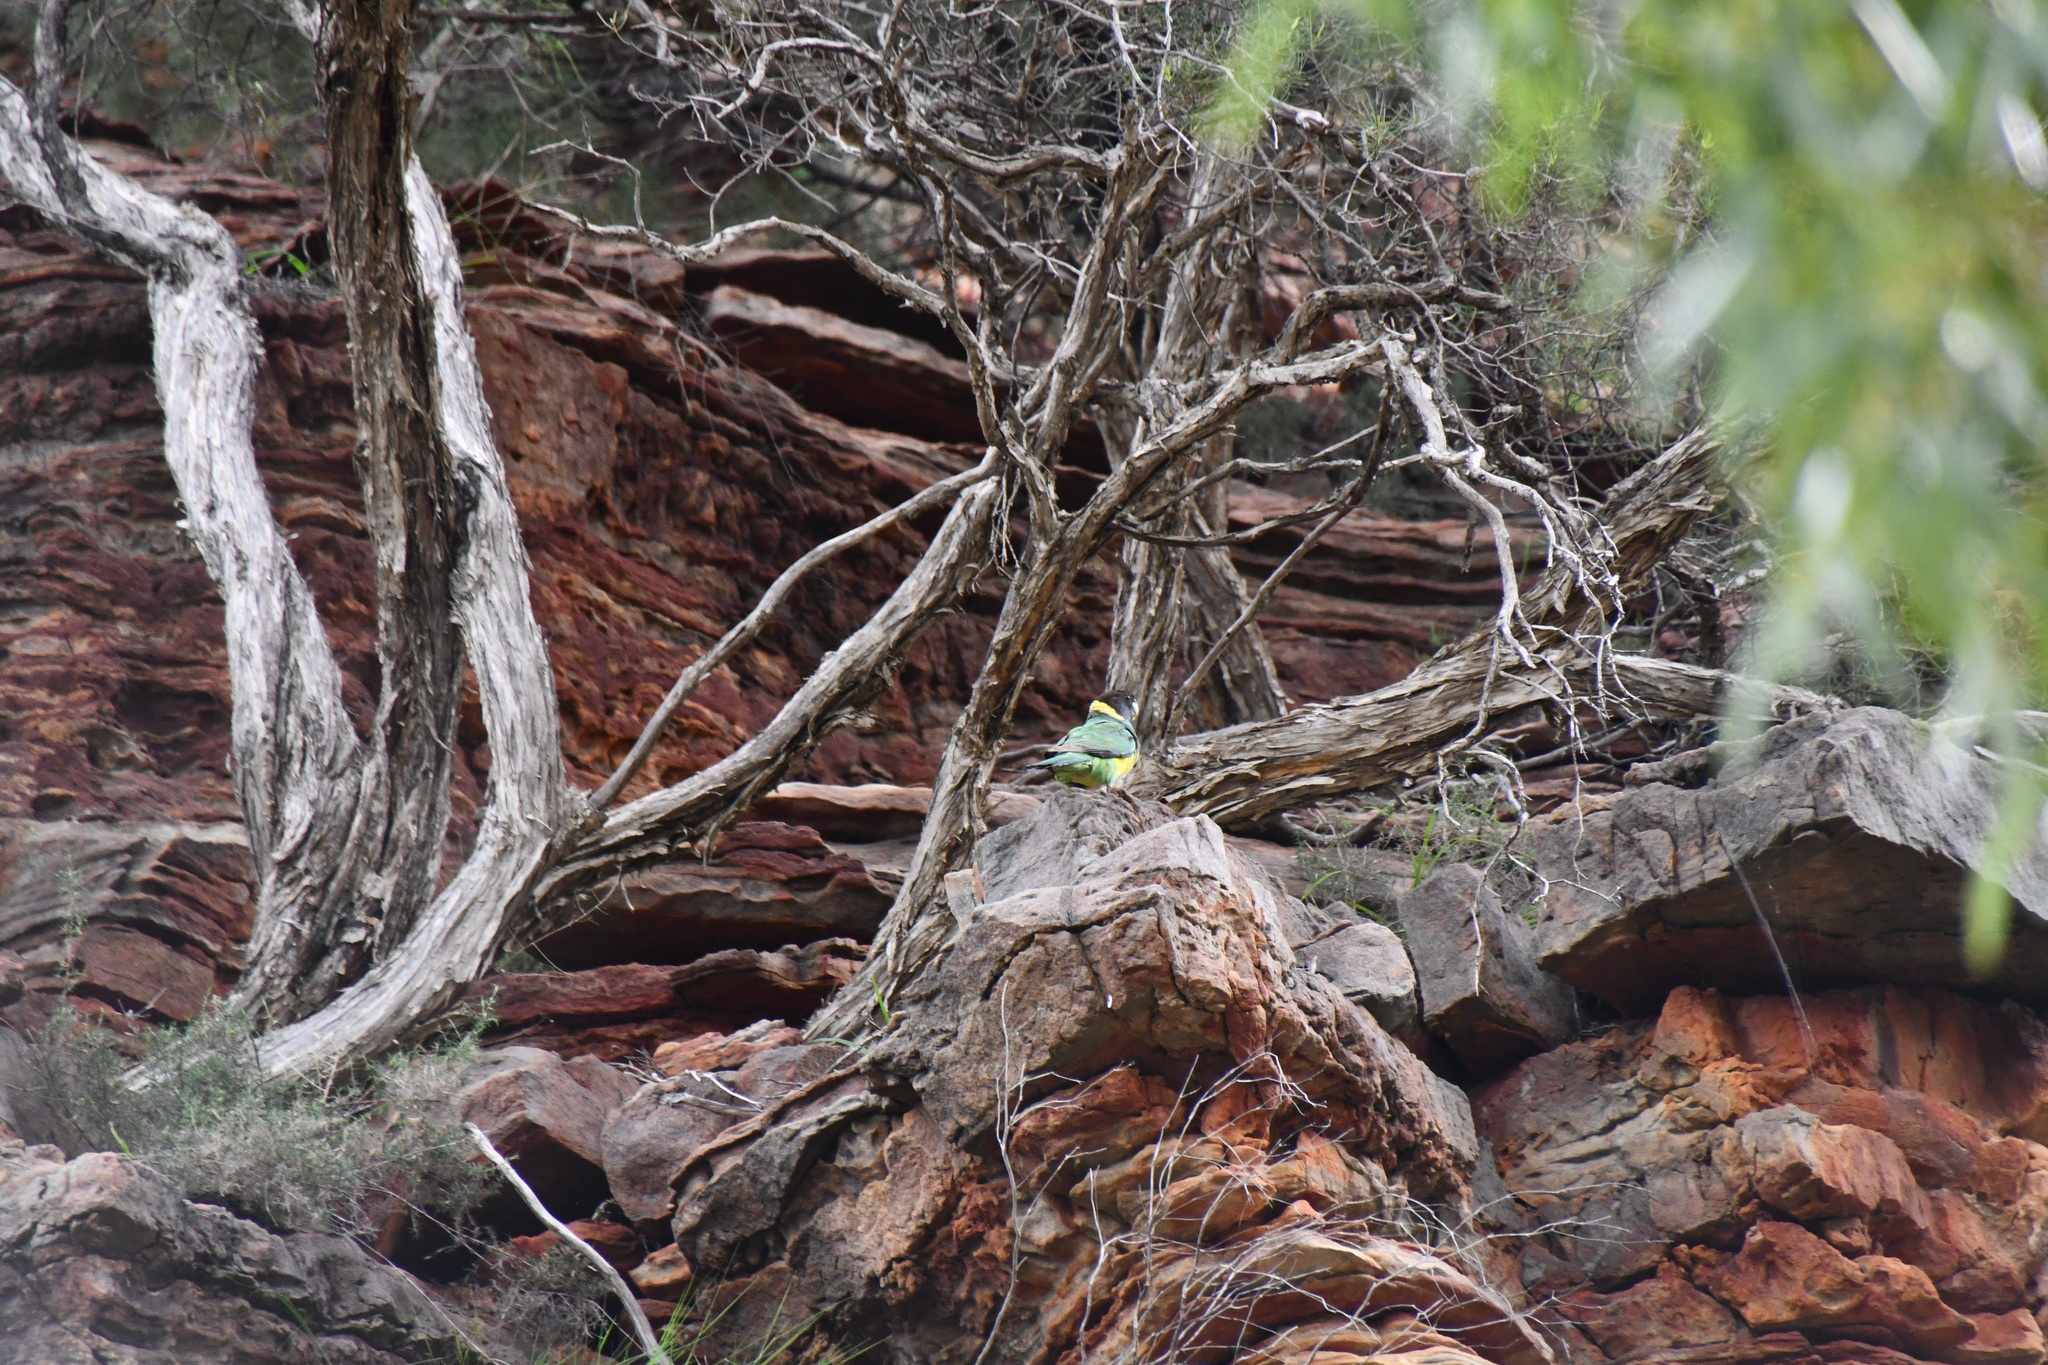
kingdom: Animalia
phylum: Chordata
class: Aves
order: Psittaciformes
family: Psittacidae
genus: Barnardius
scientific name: Barnardius zonarius
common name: Australian ringneck
